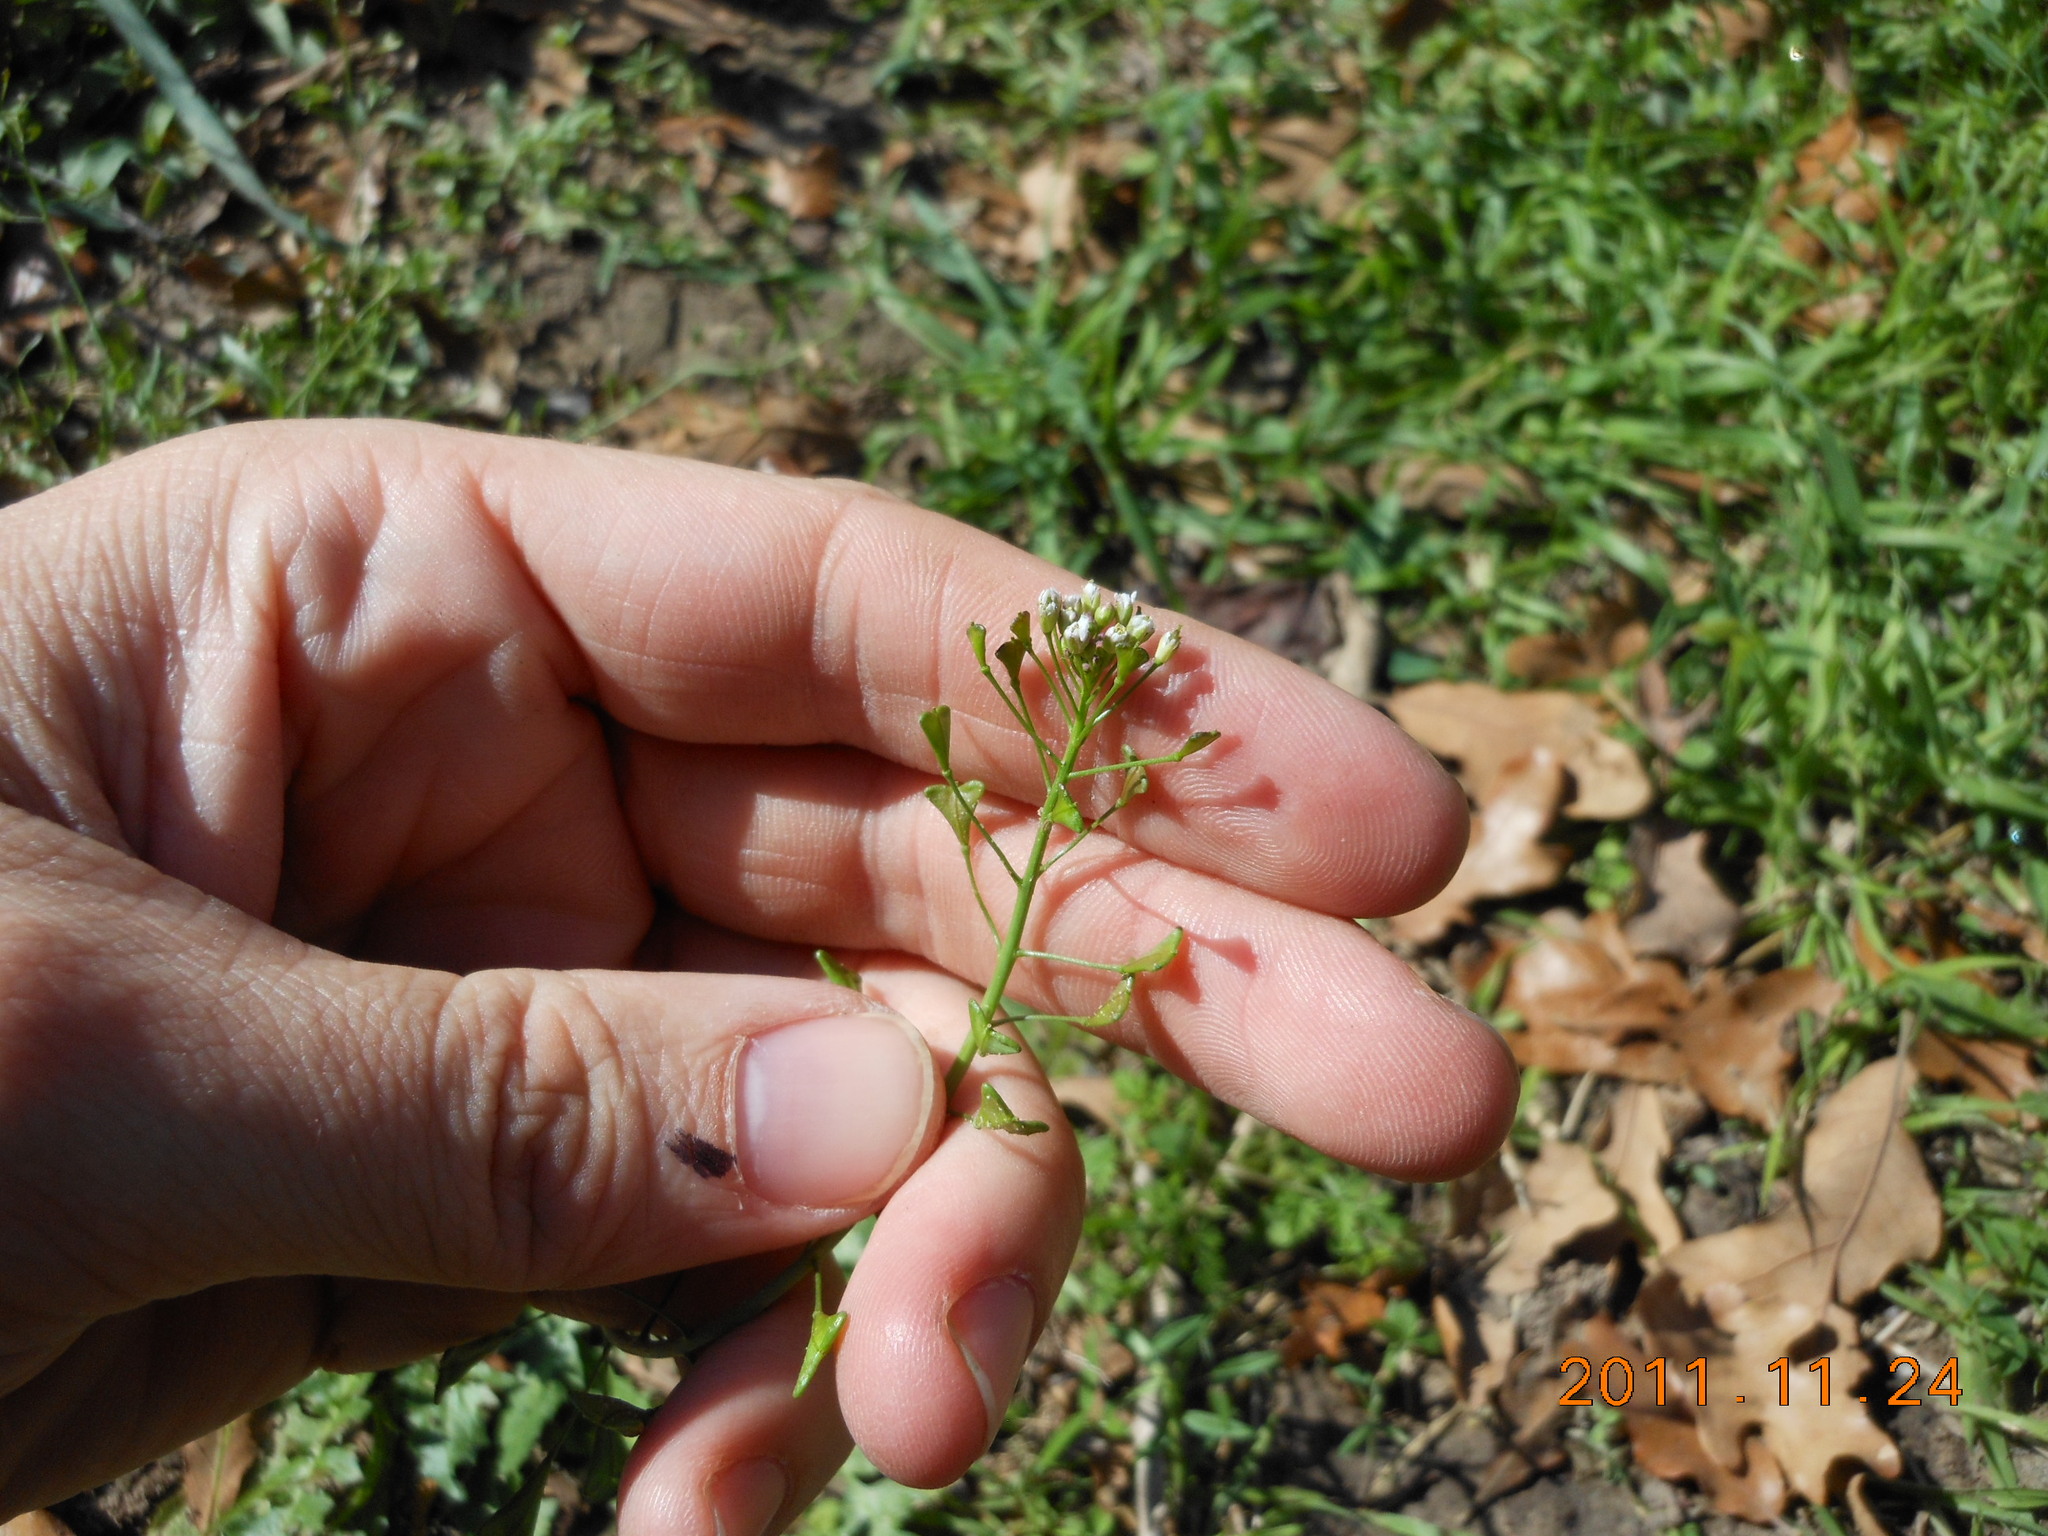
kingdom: Plantae
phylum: Tracheophyta
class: Magnoliopsida
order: Brassicales
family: Brassicaceae
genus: Capsella
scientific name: Capsella bursa-pastoris
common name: Shepherd's purse
